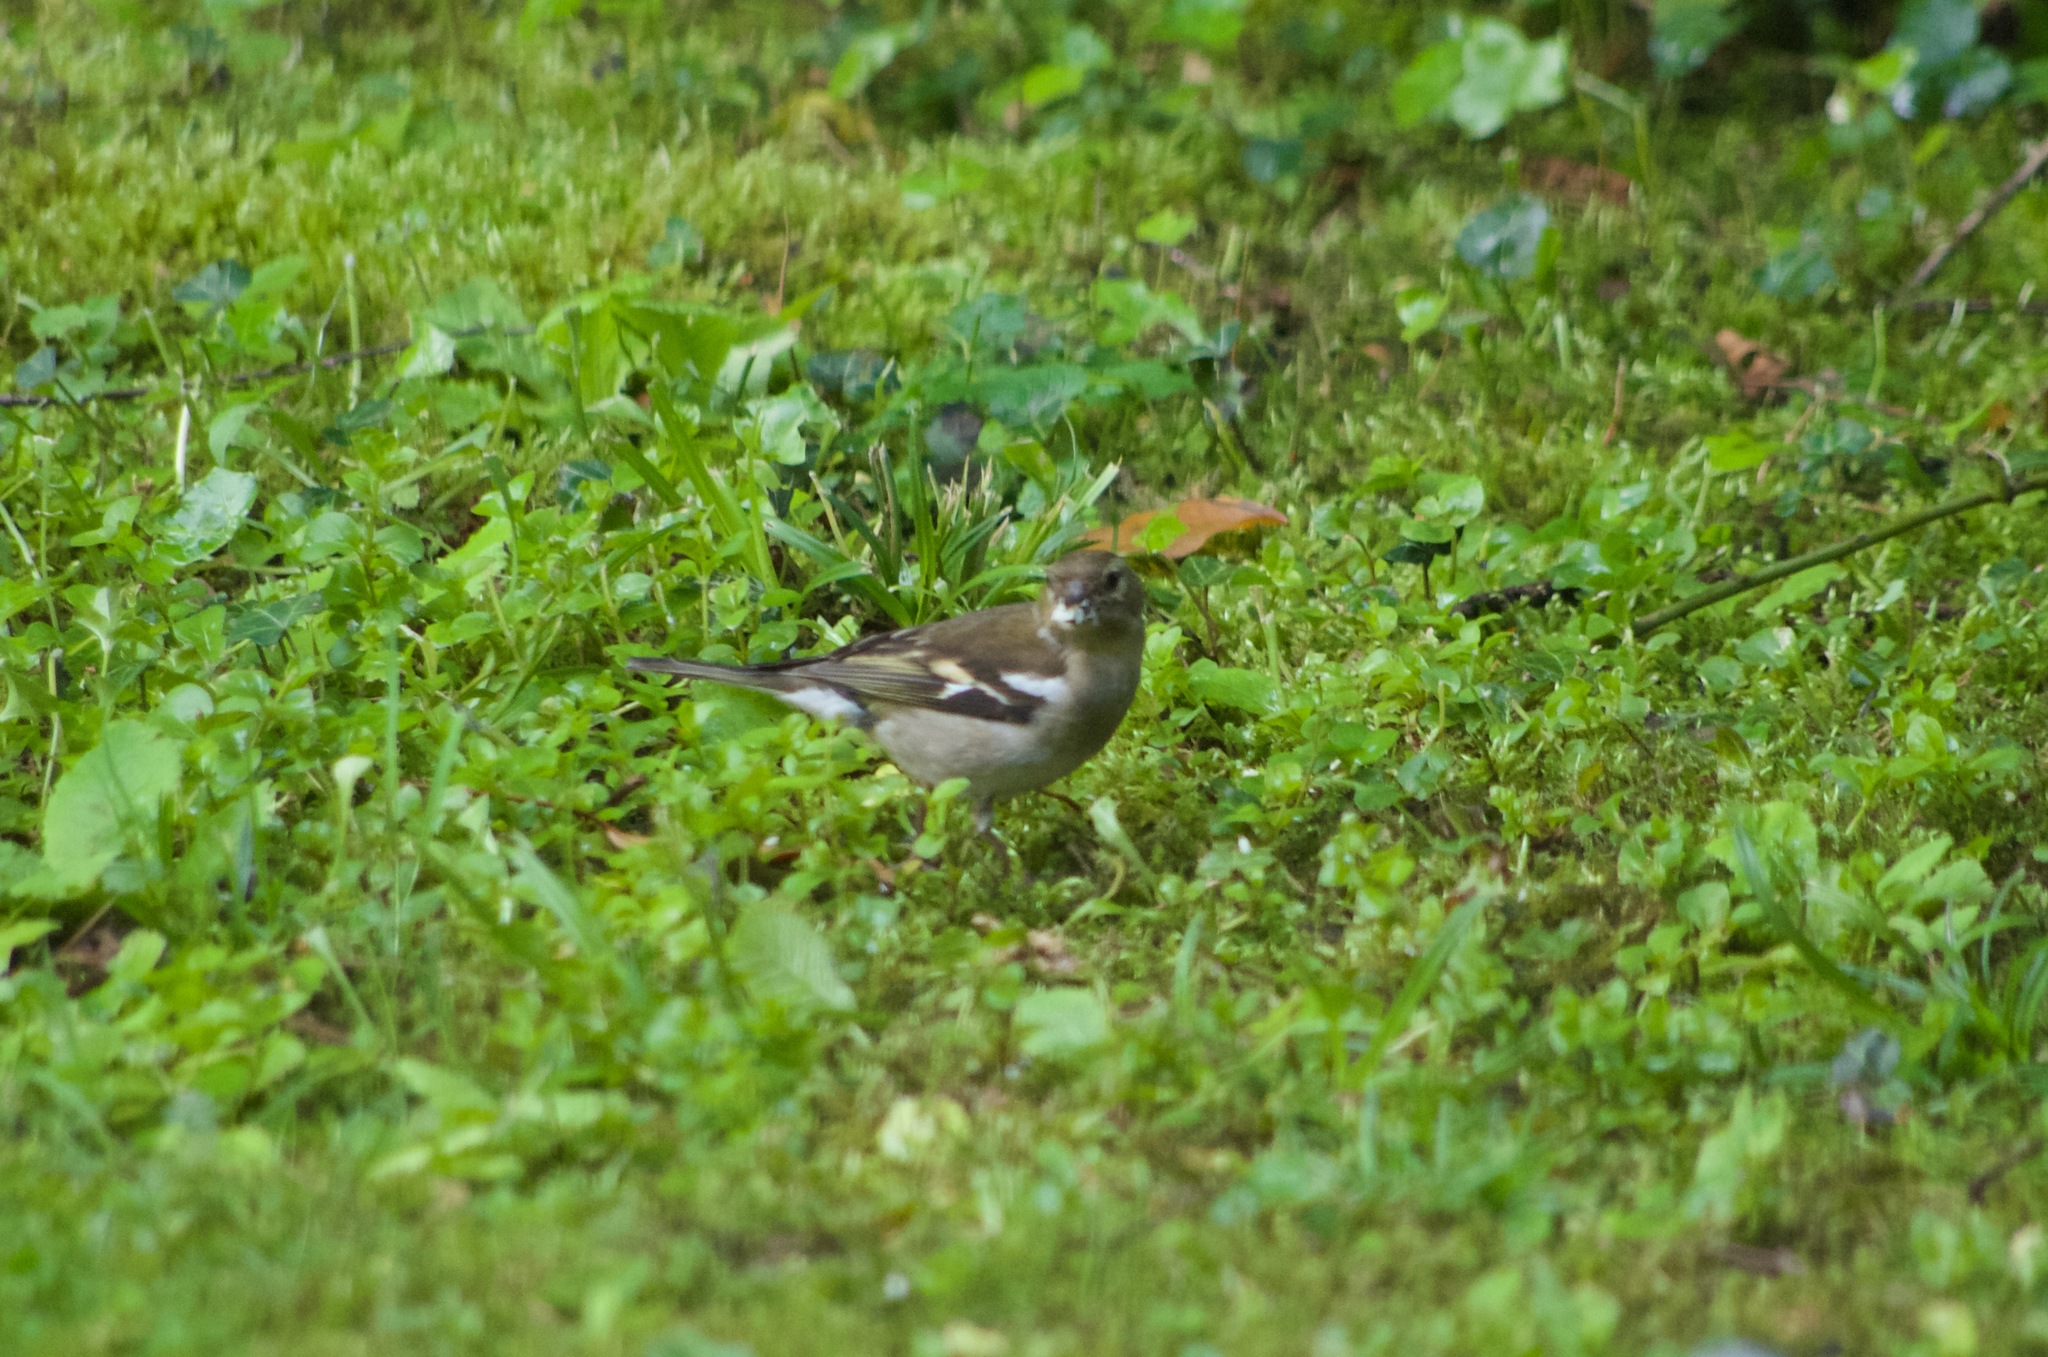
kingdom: Animalia
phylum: Chordata
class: Aves
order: Passeriformes
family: Fringillidae
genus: Fringilla
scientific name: Fringilla coelebs
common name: Common chaffinch
